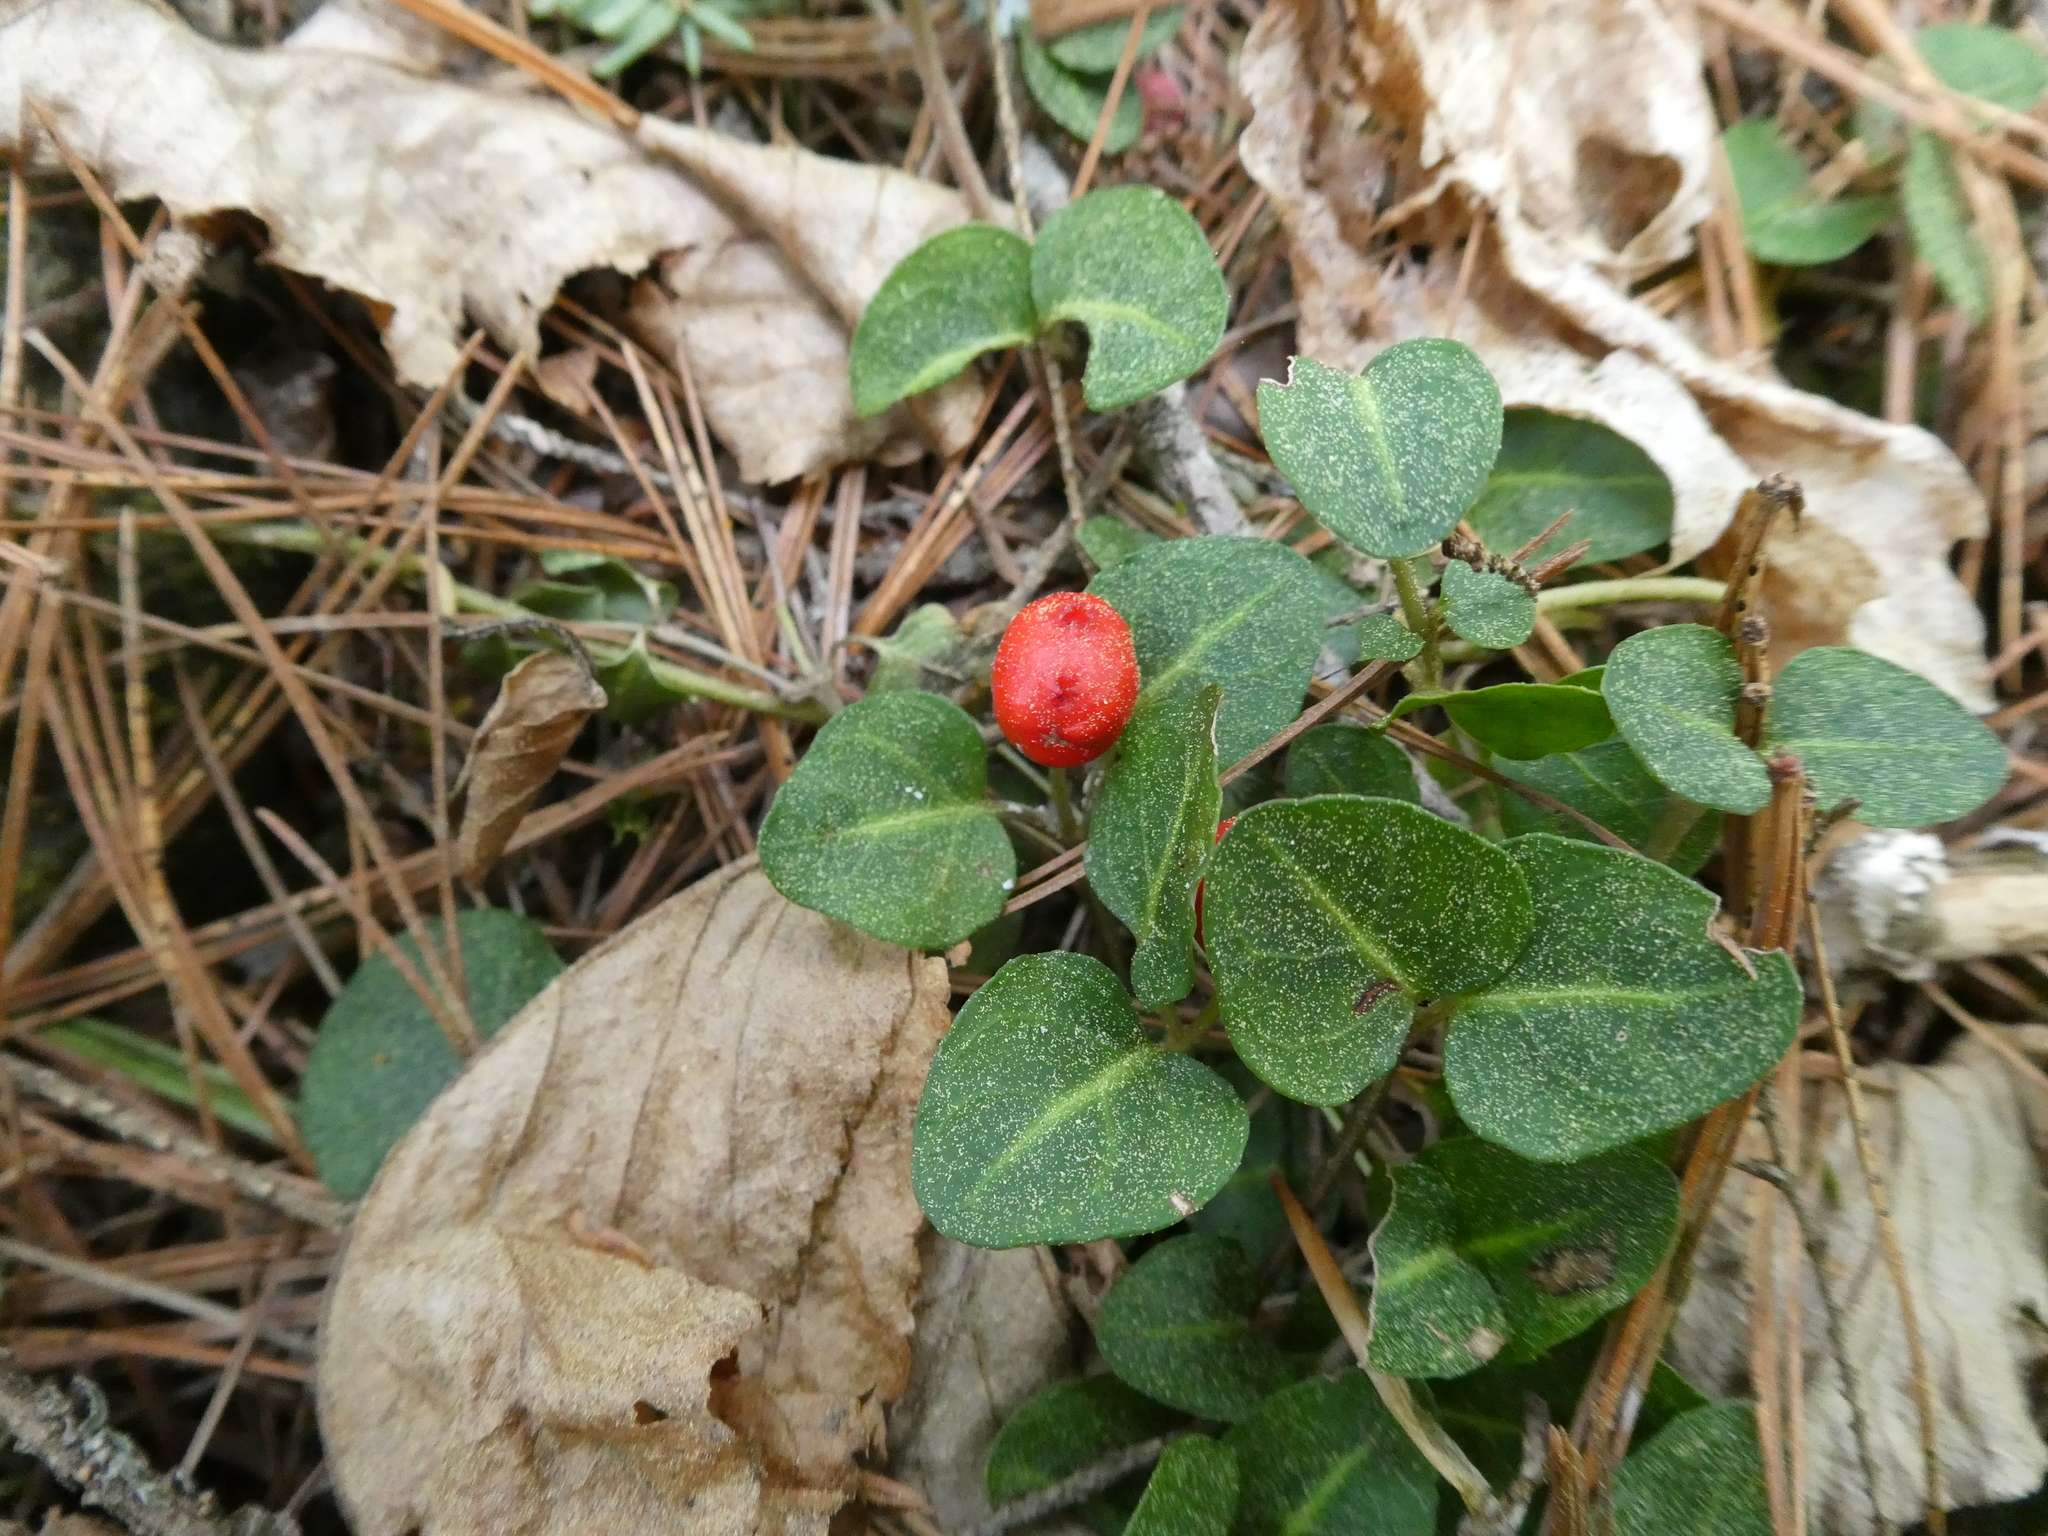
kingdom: Plantae
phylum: Tracheophyta
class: Magnoliopsida
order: Gentianales
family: Rubiaceae
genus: Mitchella
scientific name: Mitchella repens
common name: Partridge-berry
